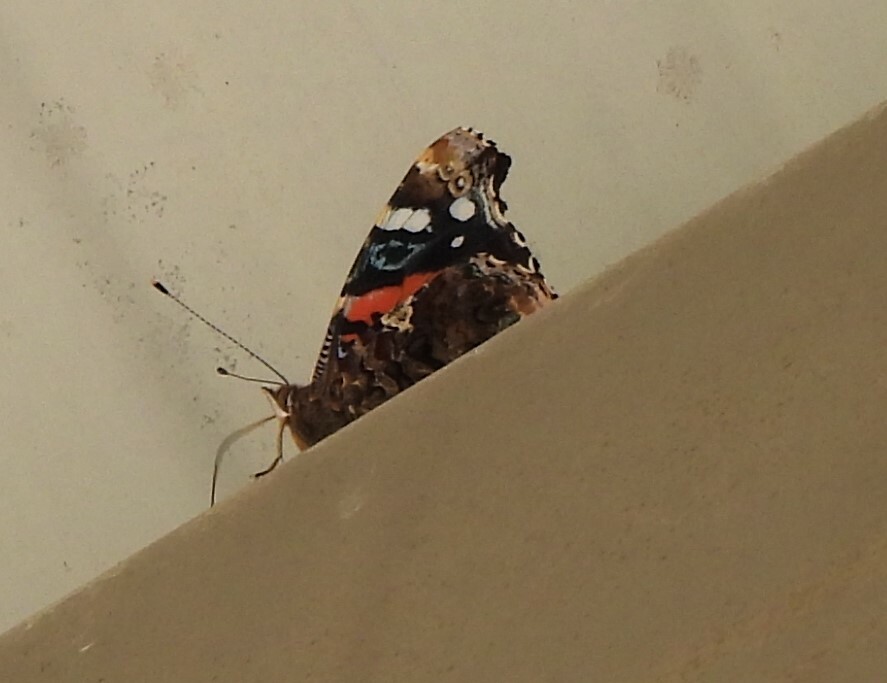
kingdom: Animalia
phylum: Arthropoda
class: Insecta
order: Lepidoptera
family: Nymphalidae
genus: Vanessa
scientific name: Vanessa atalanta
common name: Red admiral
